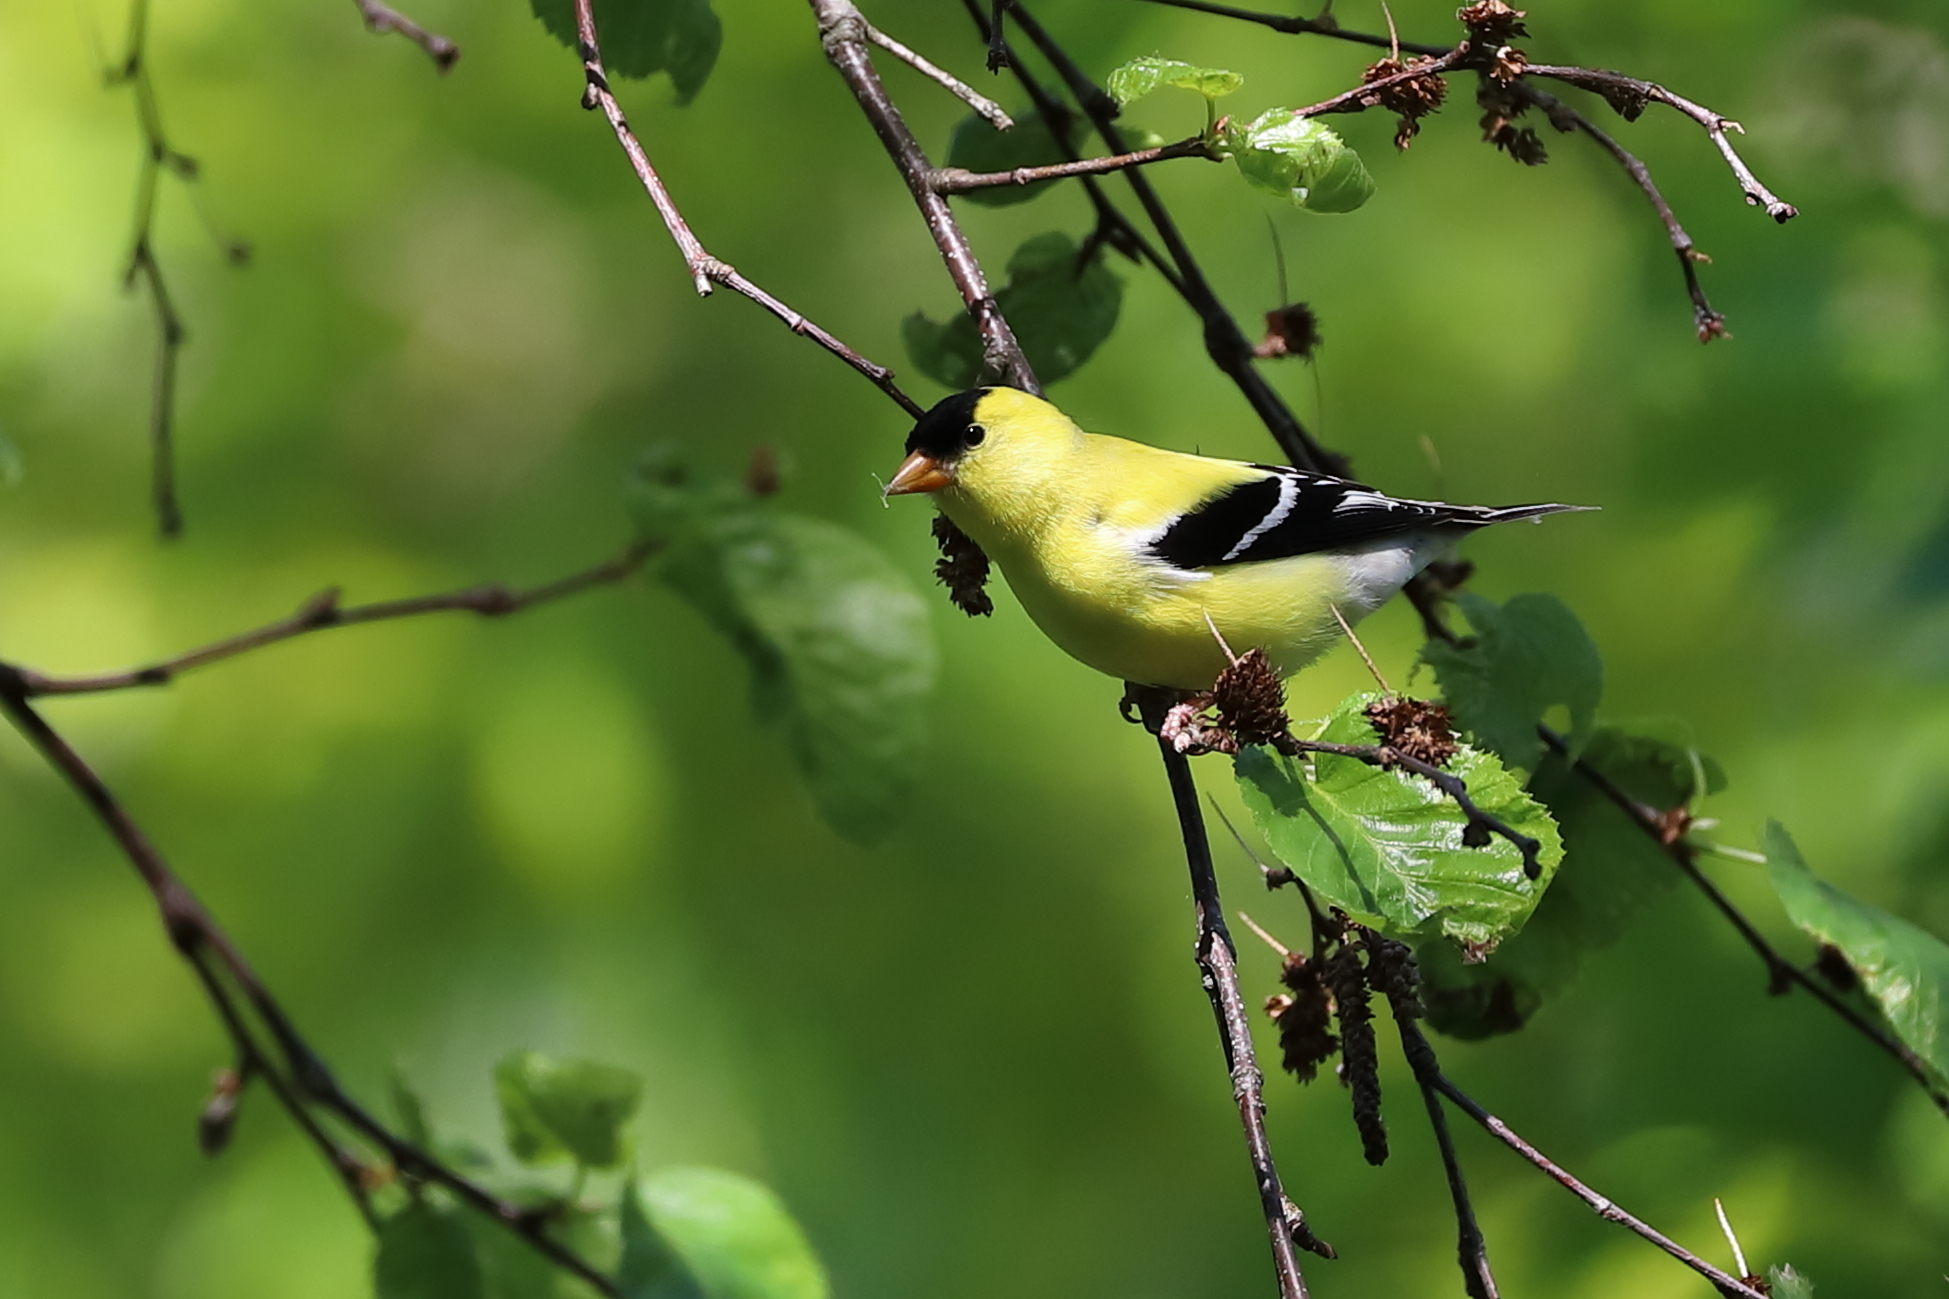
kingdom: Animalia
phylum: Chordata
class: Aves
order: Passeriformes
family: Fringillidae
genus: Spinus
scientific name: Spinus tristis
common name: American goldfinch
